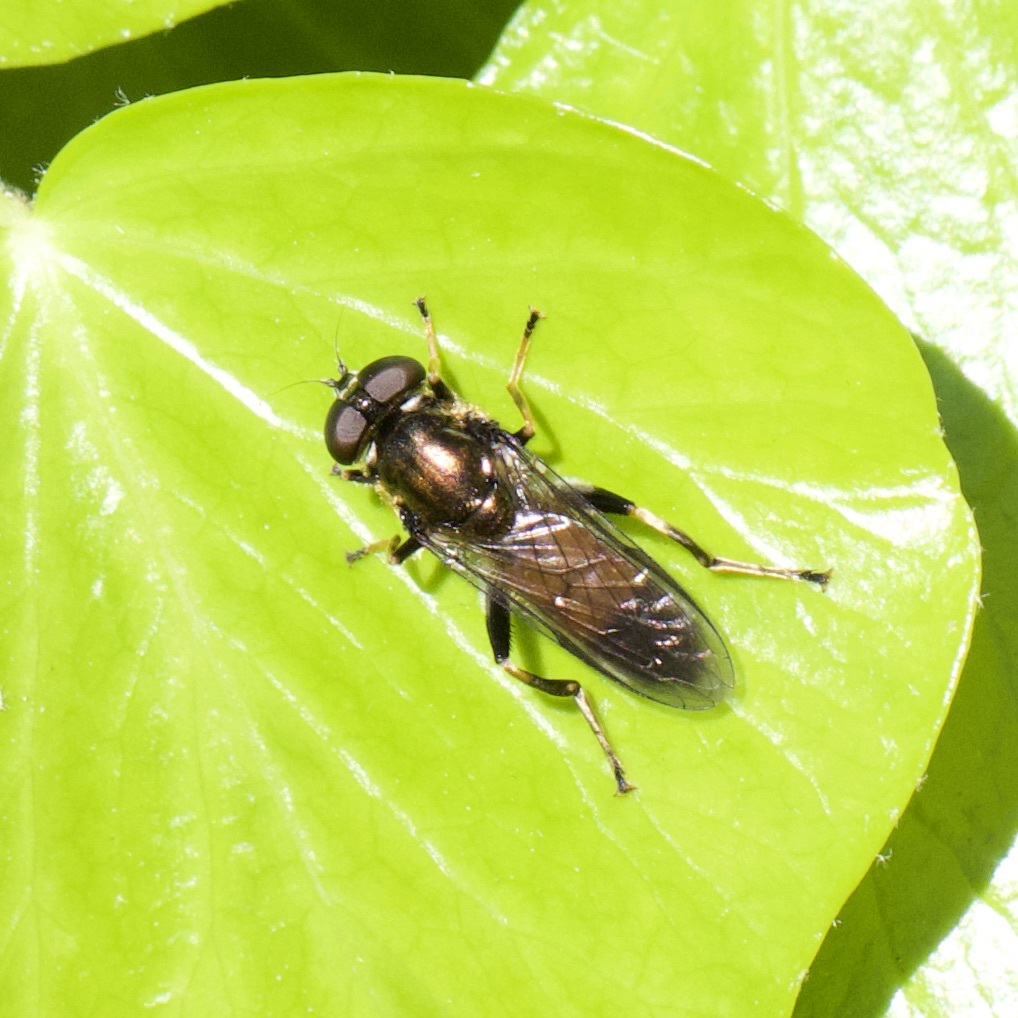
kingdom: Animalia
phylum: Arthropoda
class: Insecta
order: Diptera
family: Syrphidae
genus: Xylota
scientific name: Xylota segnis
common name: Brown-toed forest fly
